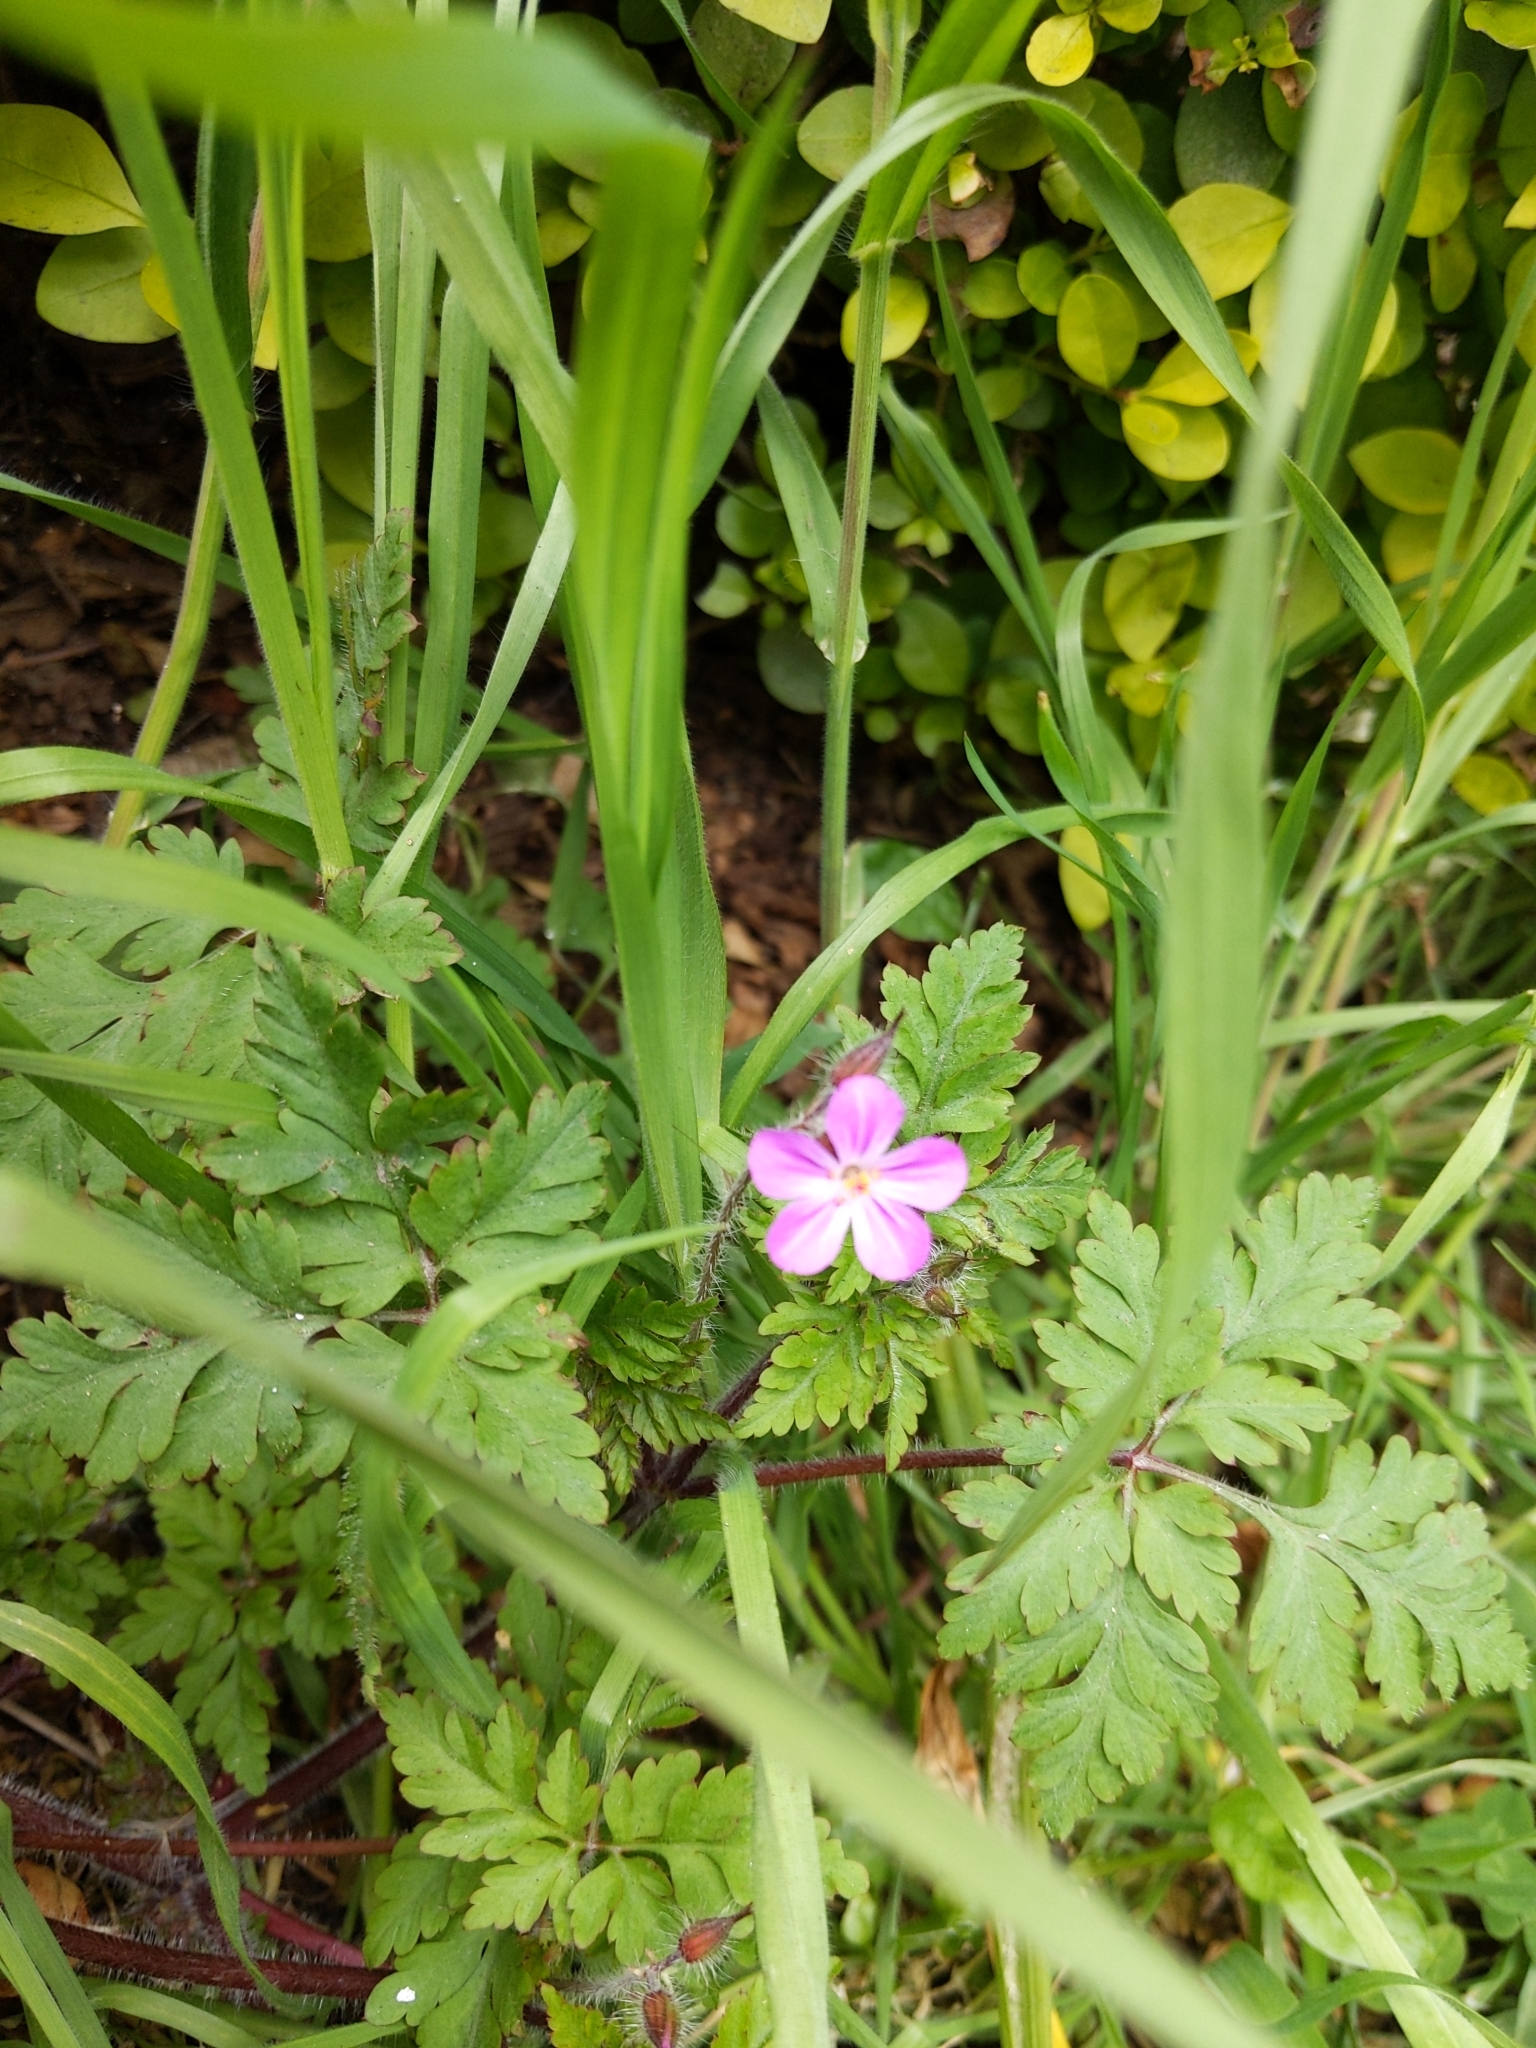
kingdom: Plantae
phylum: Tracheophyta
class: Magnoliopsida
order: Geraniales
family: Geraniaceae
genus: Geranium
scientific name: Geranium robertianum
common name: Herb-robert
